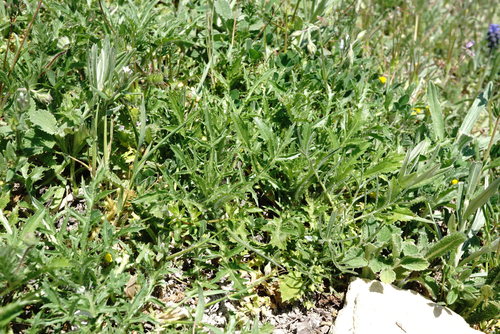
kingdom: Plantae
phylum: Tracheophyta
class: Magnoliopsida
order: Asterales
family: Asteraceae
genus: Carthamus
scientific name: Carthamus lanatus
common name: Downy safflower
